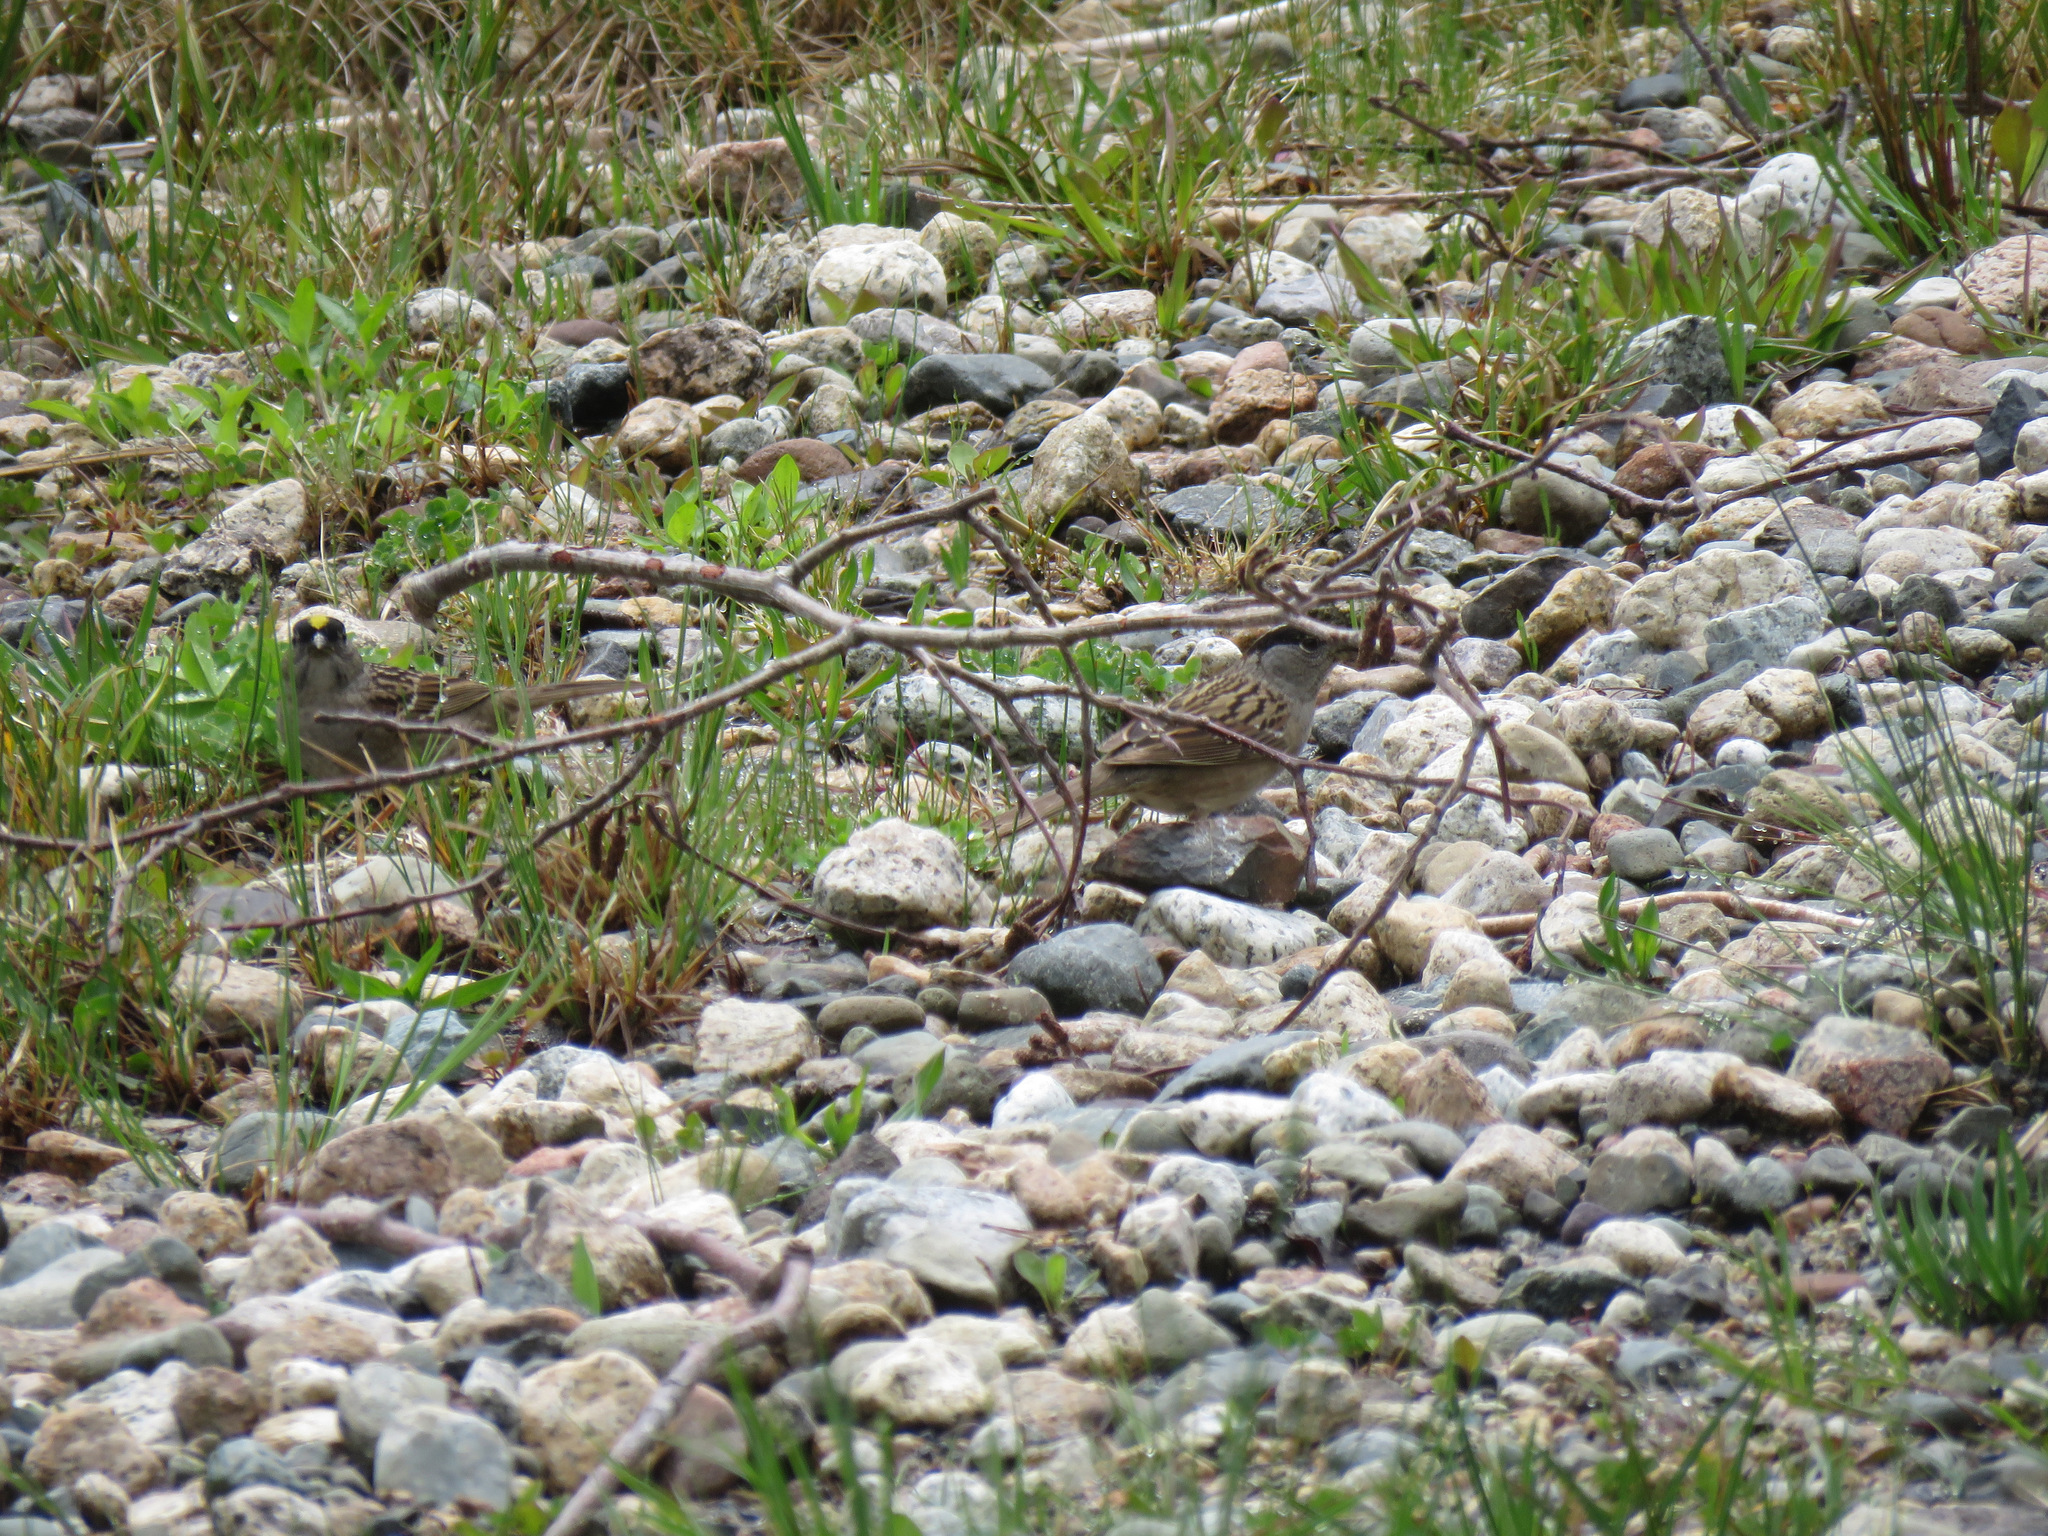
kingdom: Animalia
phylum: Chordata
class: Aves
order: Passeriformes
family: Passerellidae
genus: Zonotrichia
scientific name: Zonotrichia atricapilla
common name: Golden-crowned sparrow
